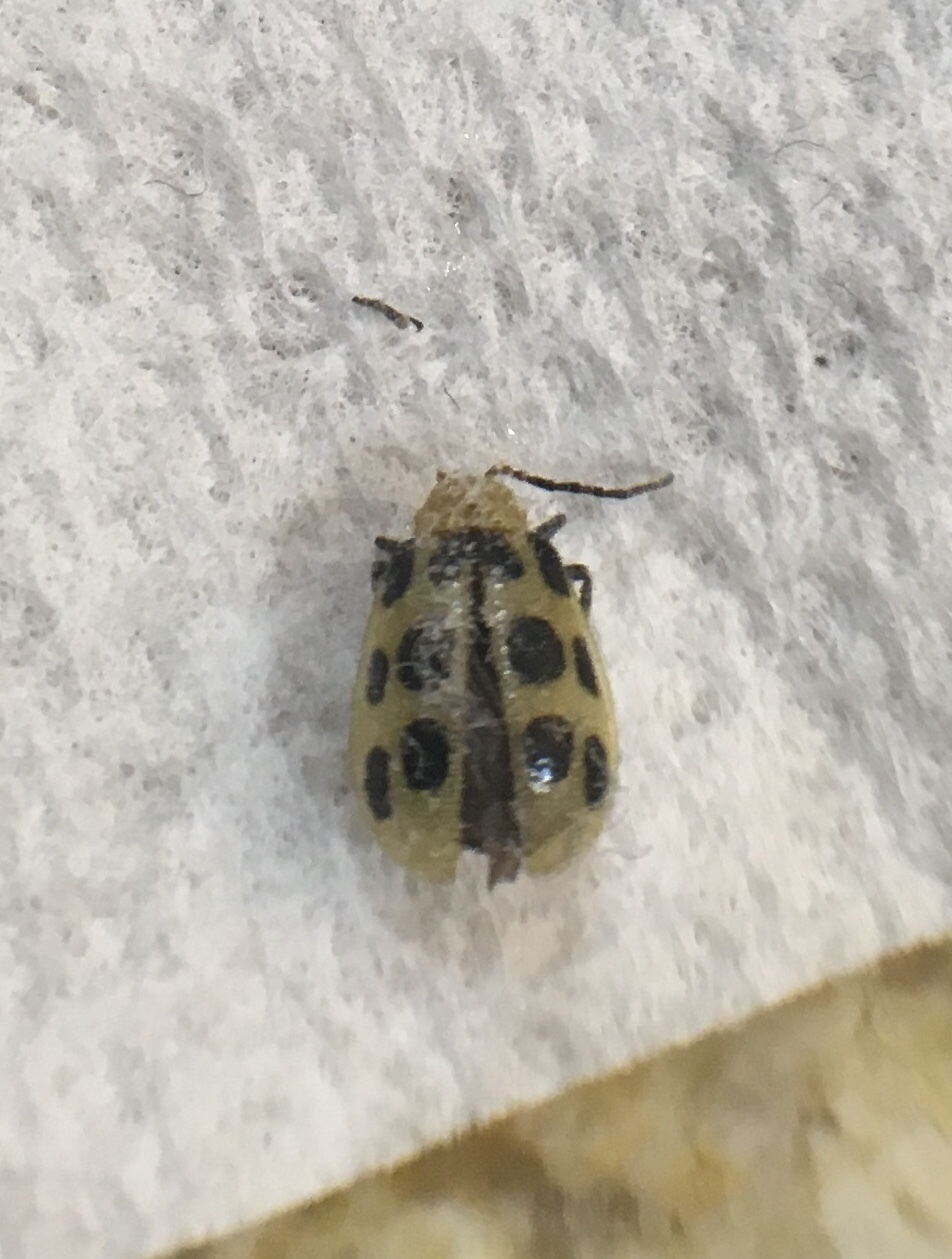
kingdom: Animalia
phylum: Arthropoda
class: Insecta
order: Coleoptera
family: Chrysomelidae
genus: Diabrotica
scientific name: Diabrotica undecimpunctata
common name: Spotted cucumber beetle
